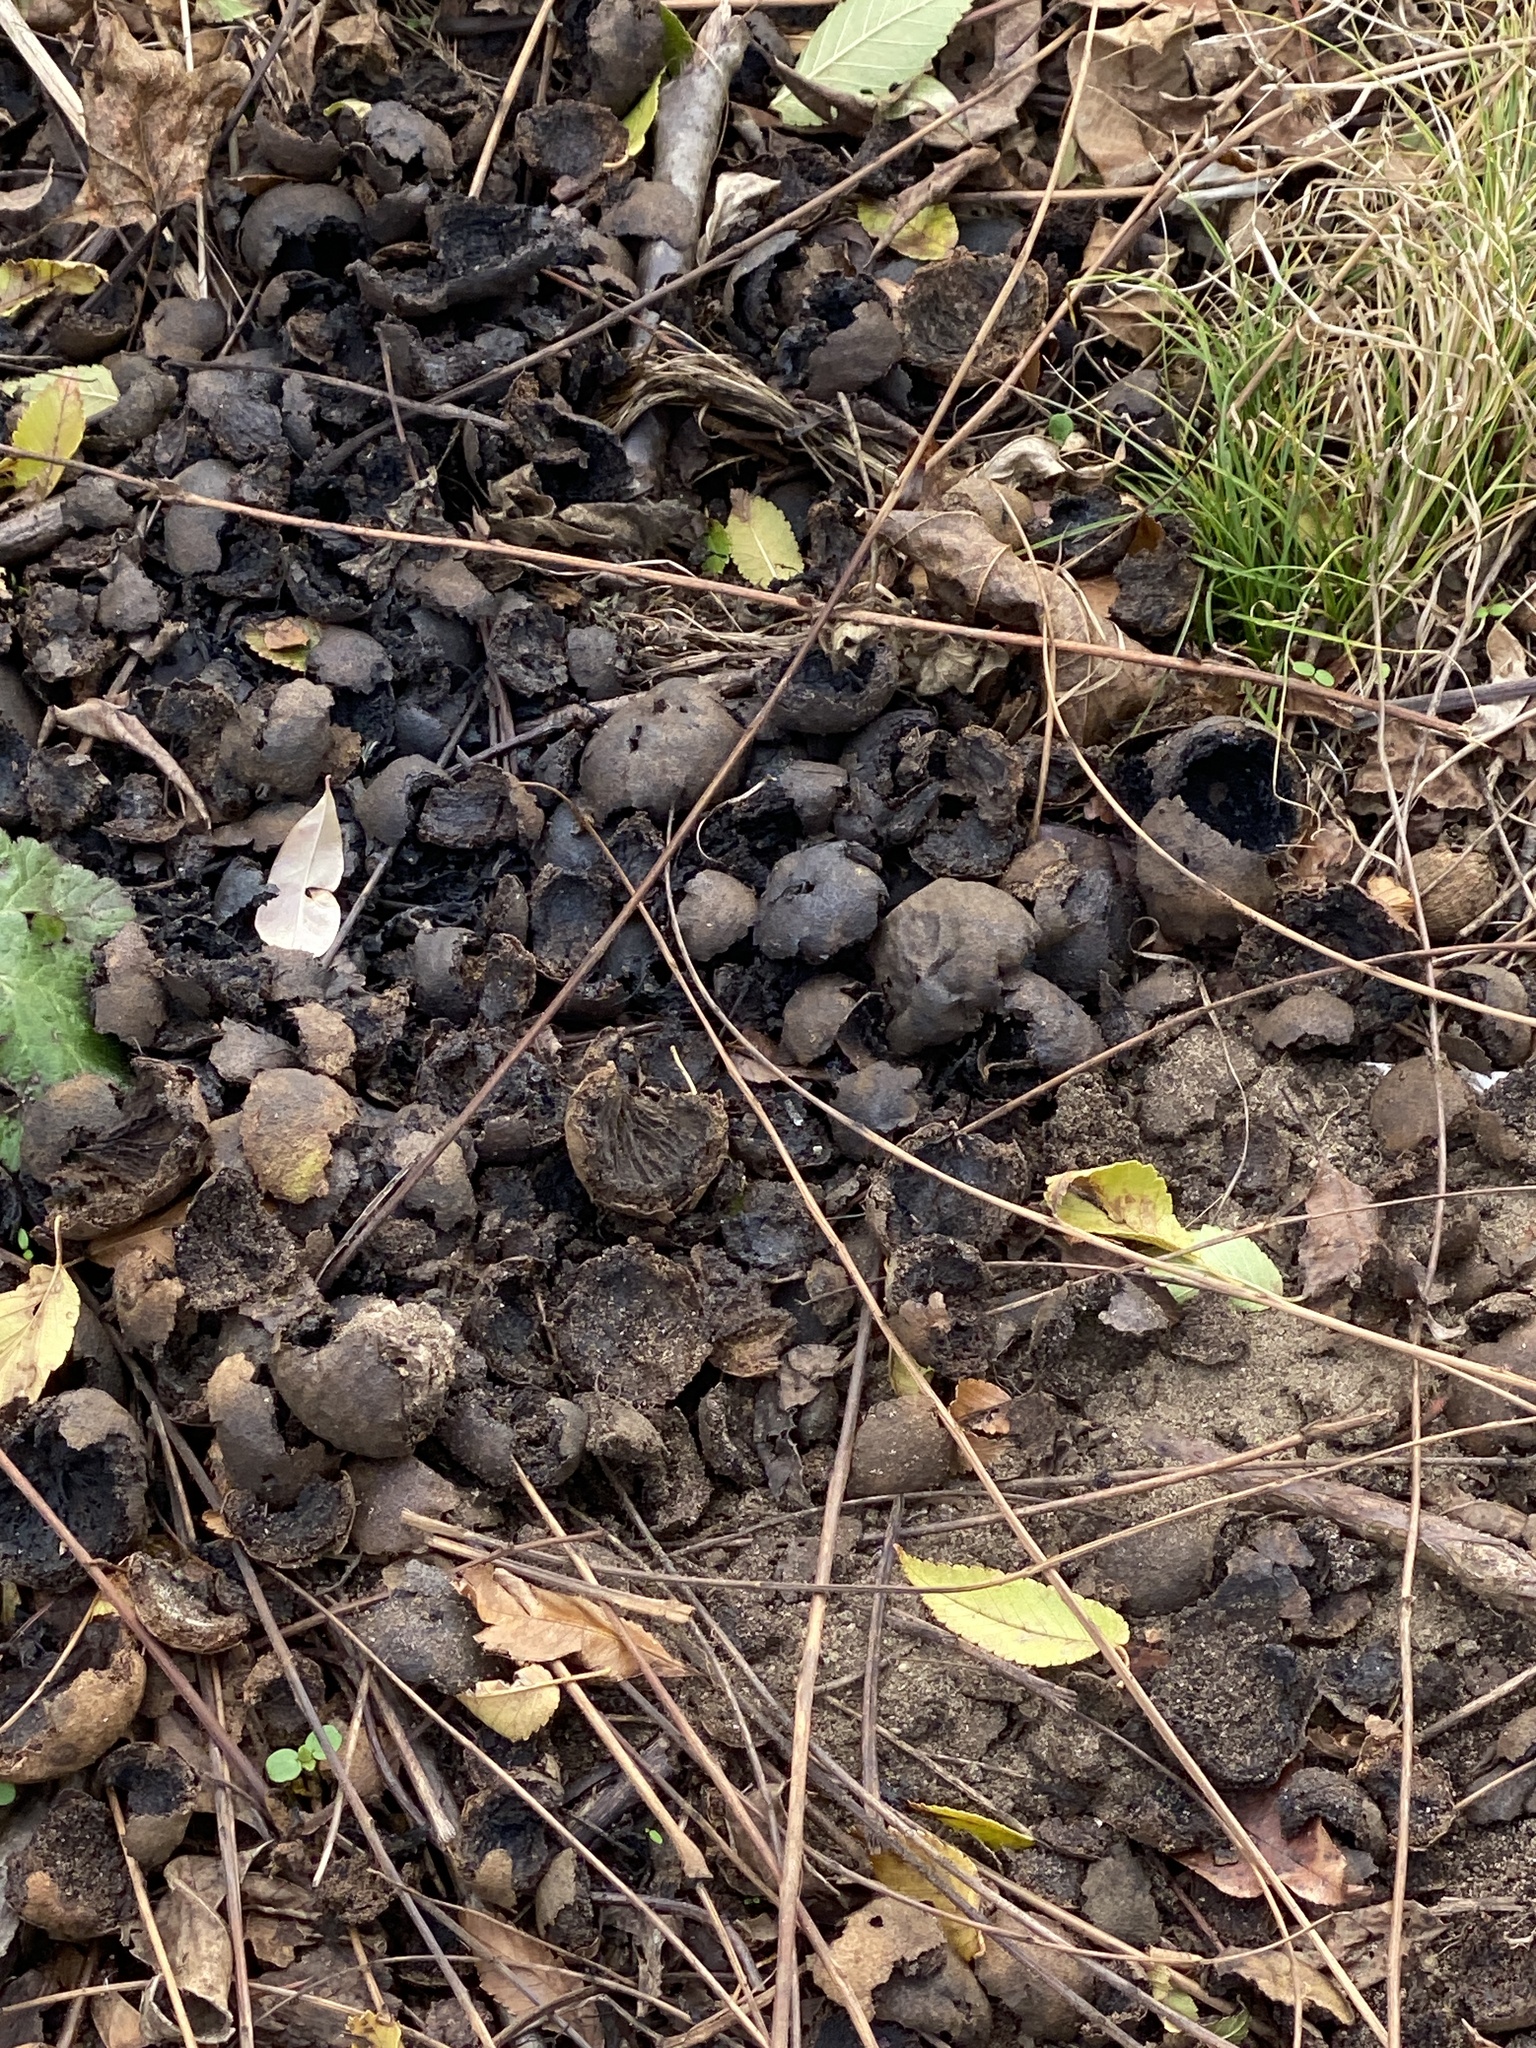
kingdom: Plantae
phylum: Tracheophyta
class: Magnoliopsida
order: Fagales
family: Juglandaceae
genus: Juglans
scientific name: Juglans nigra
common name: Black walnut
